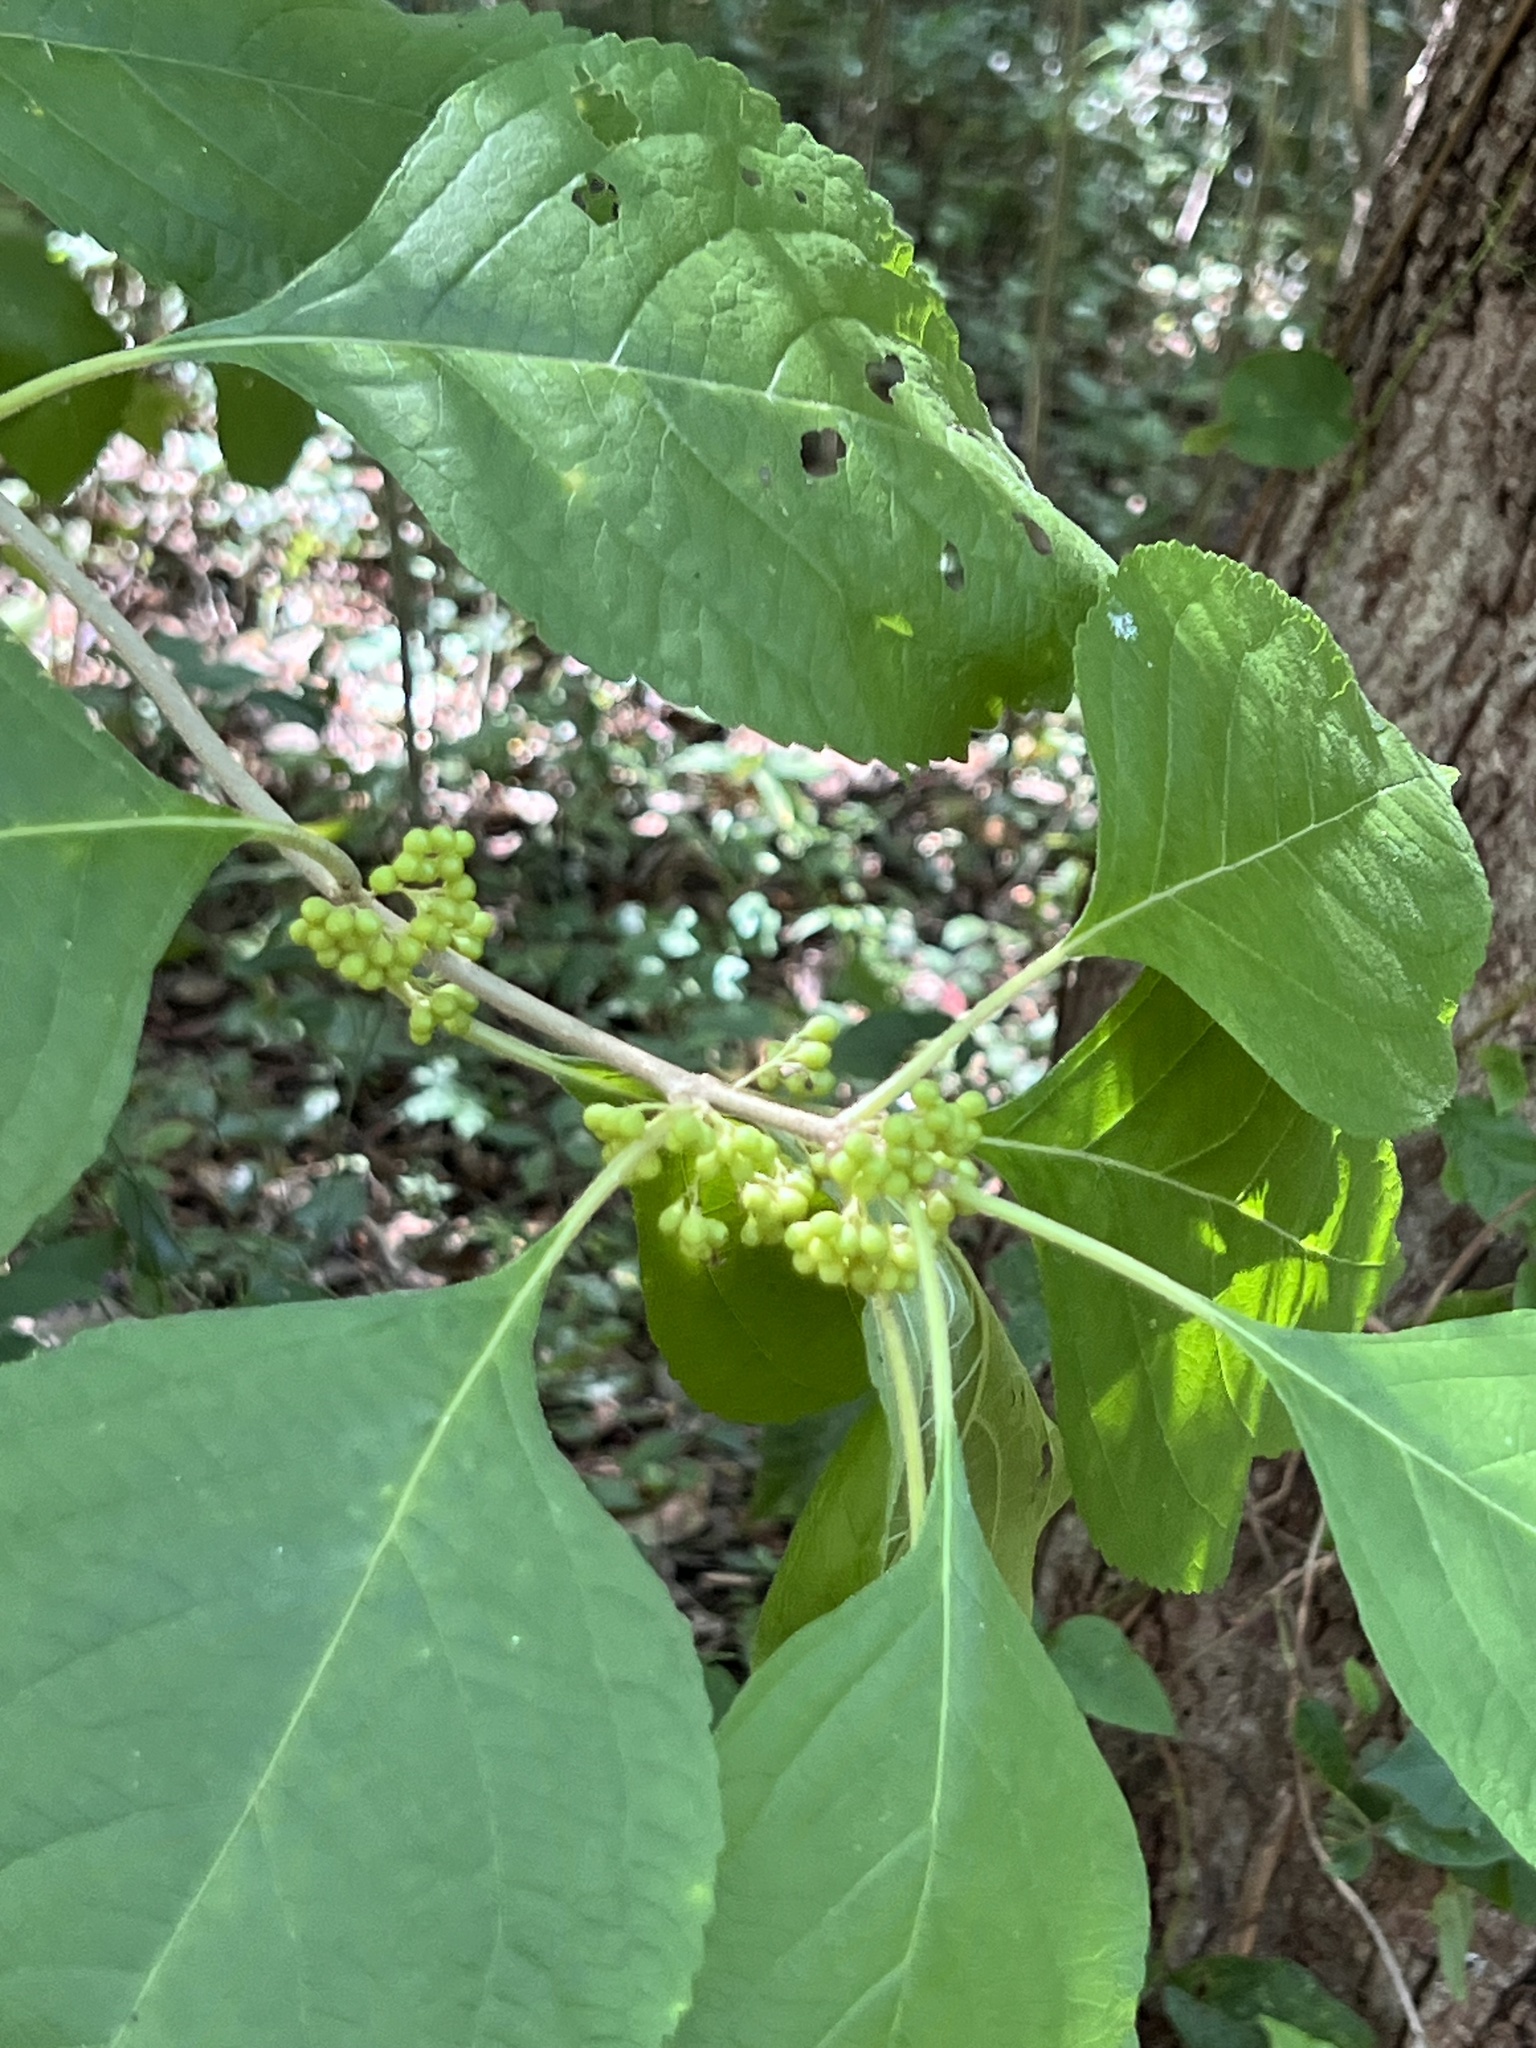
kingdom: Plantae
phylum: Tracheophyta
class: Magnoliopsida
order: Lamiales
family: Lamiaceae
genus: Callicarpa
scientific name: Callicarpa americana
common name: American beautyberry
